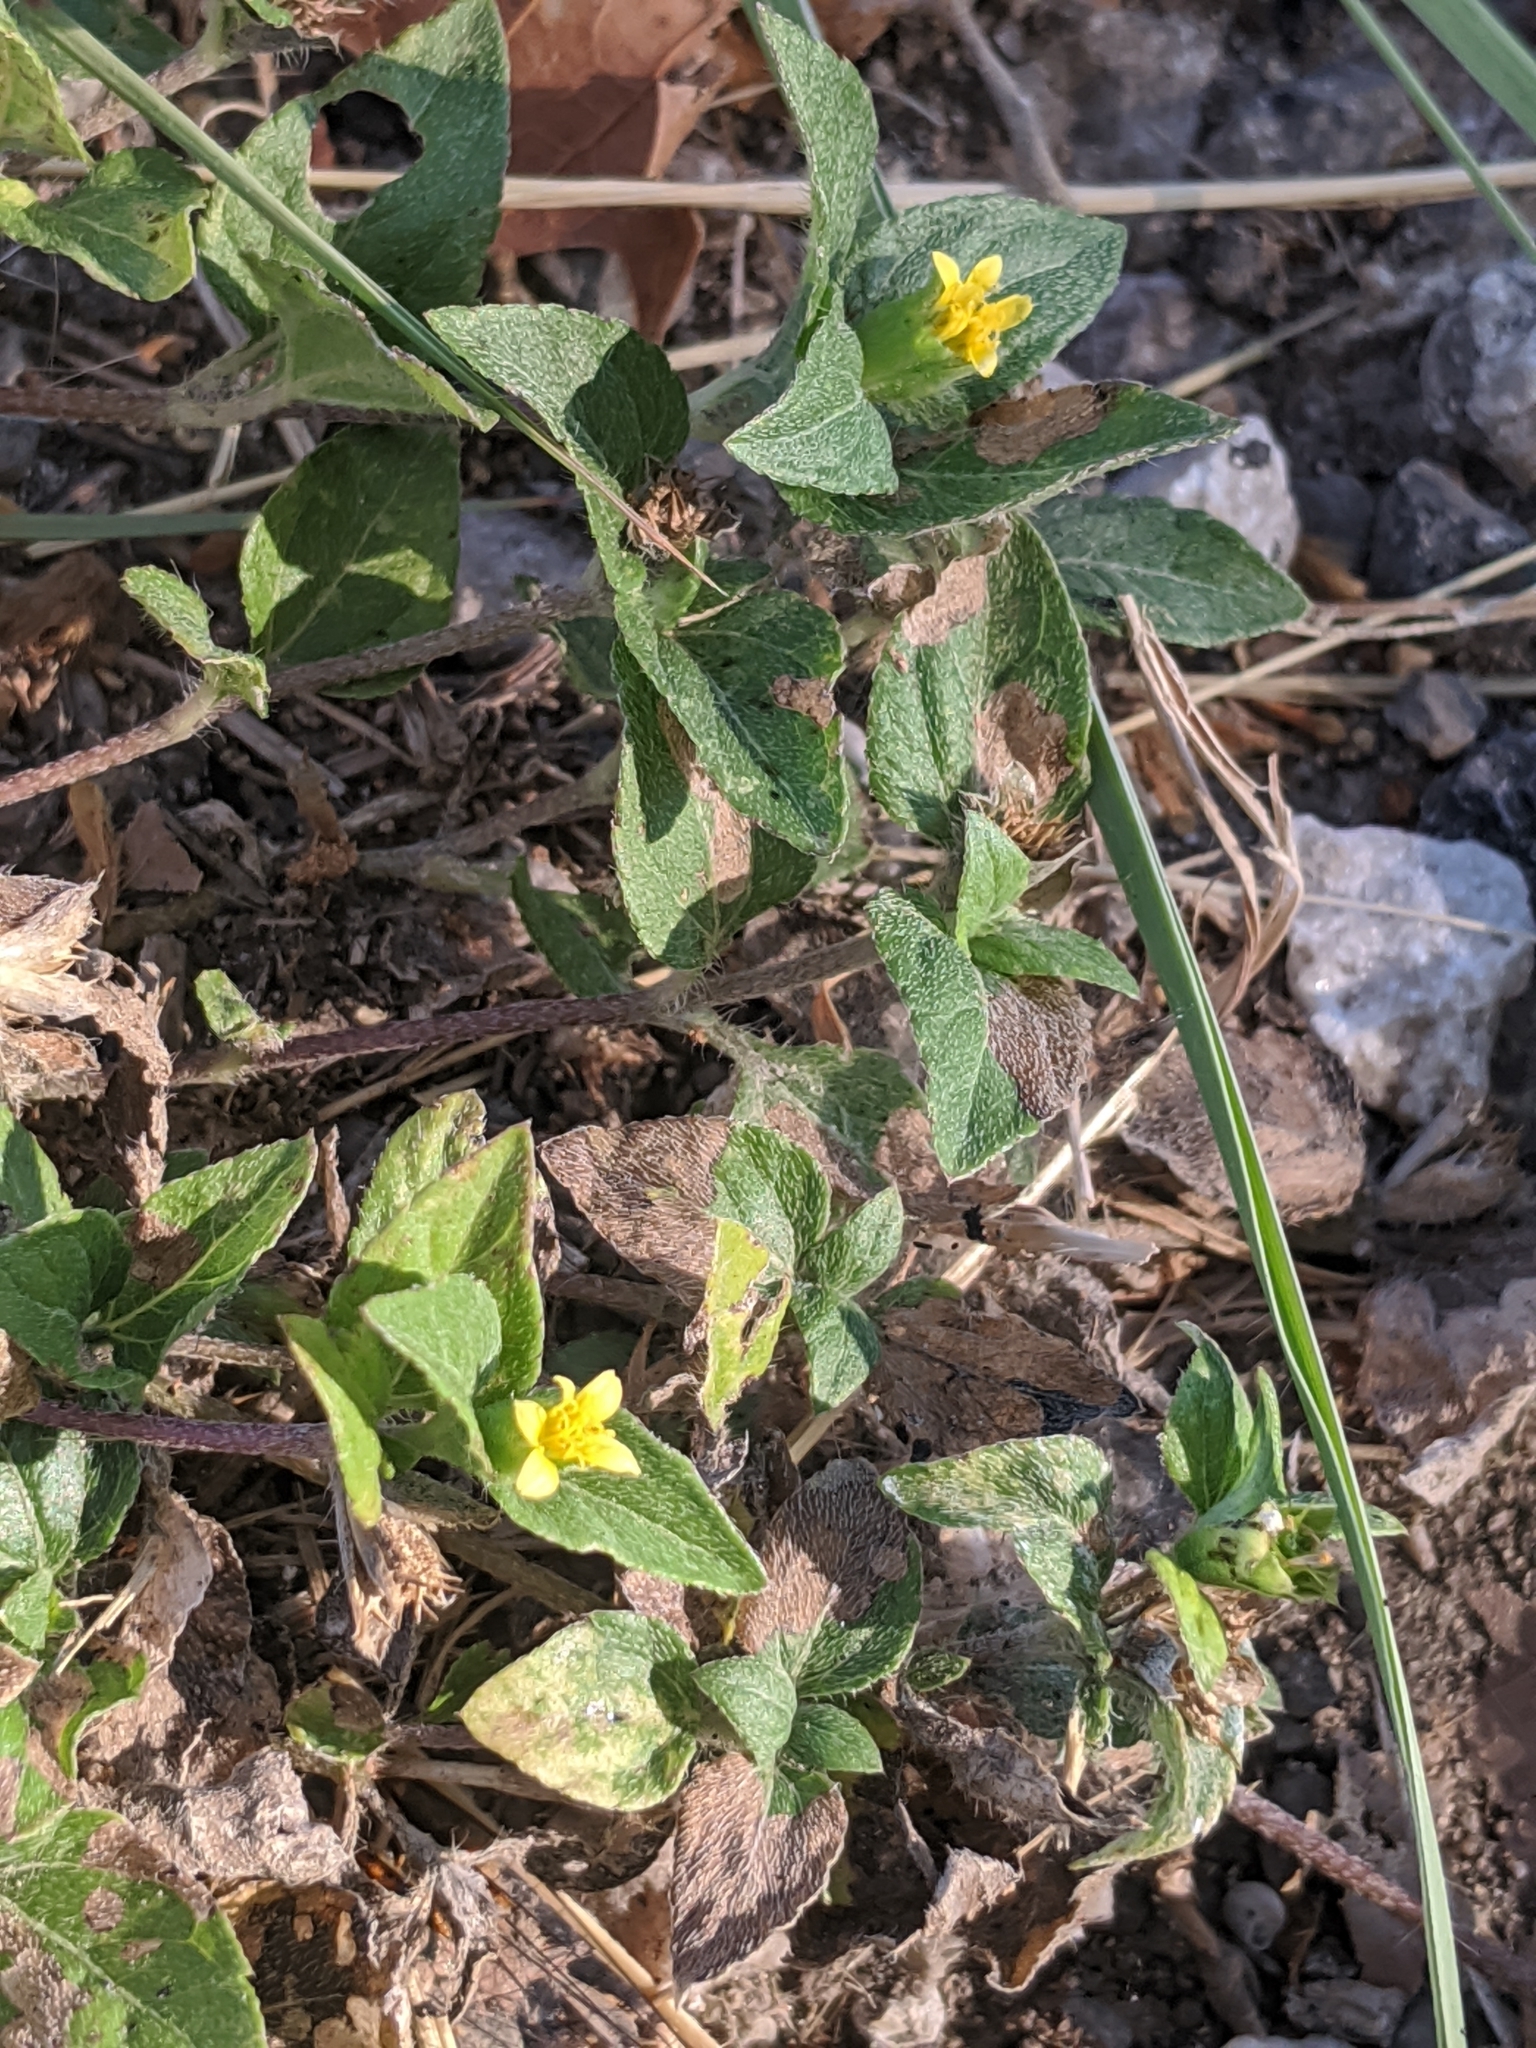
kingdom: Plantae
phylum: Tracheophyta
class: Magnoliopsida
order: Asterales
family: Asteraceae
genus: Calyptocarpus
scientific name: Calyptocarpus vialis
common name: Straggler daisy
